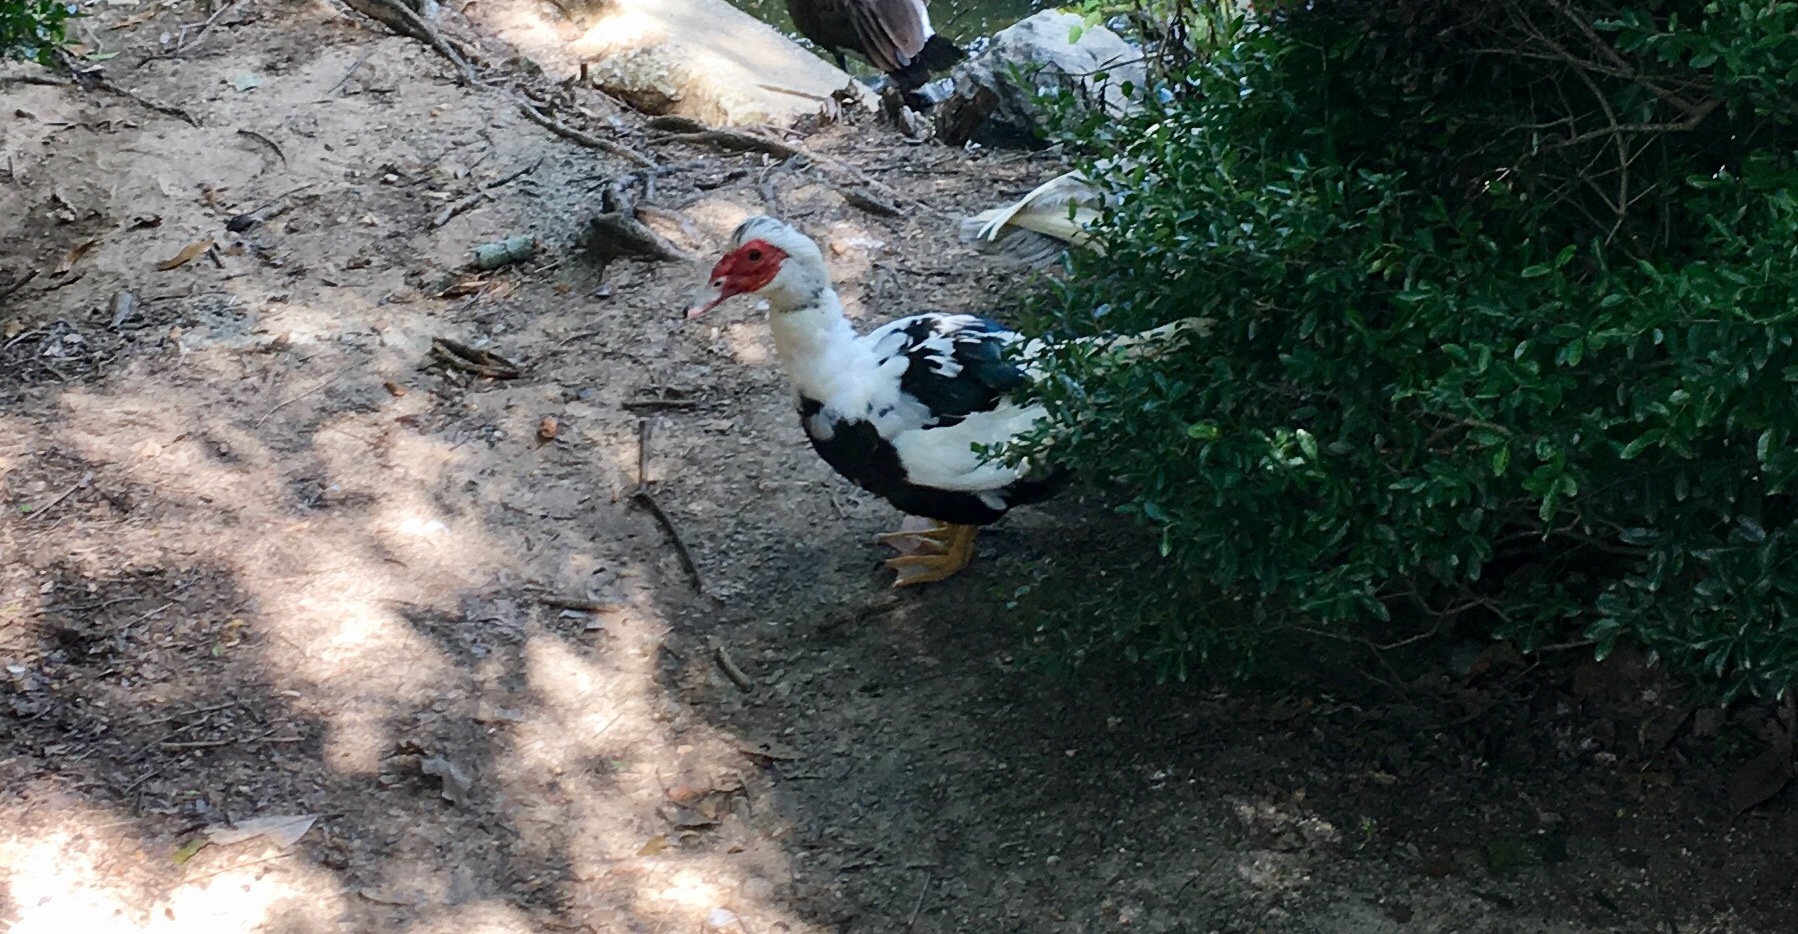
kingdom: Animalia
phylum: Chordata
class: Aves
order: Anseriformes
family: Anatidae
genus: Cairina
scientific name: Cairina moschata
